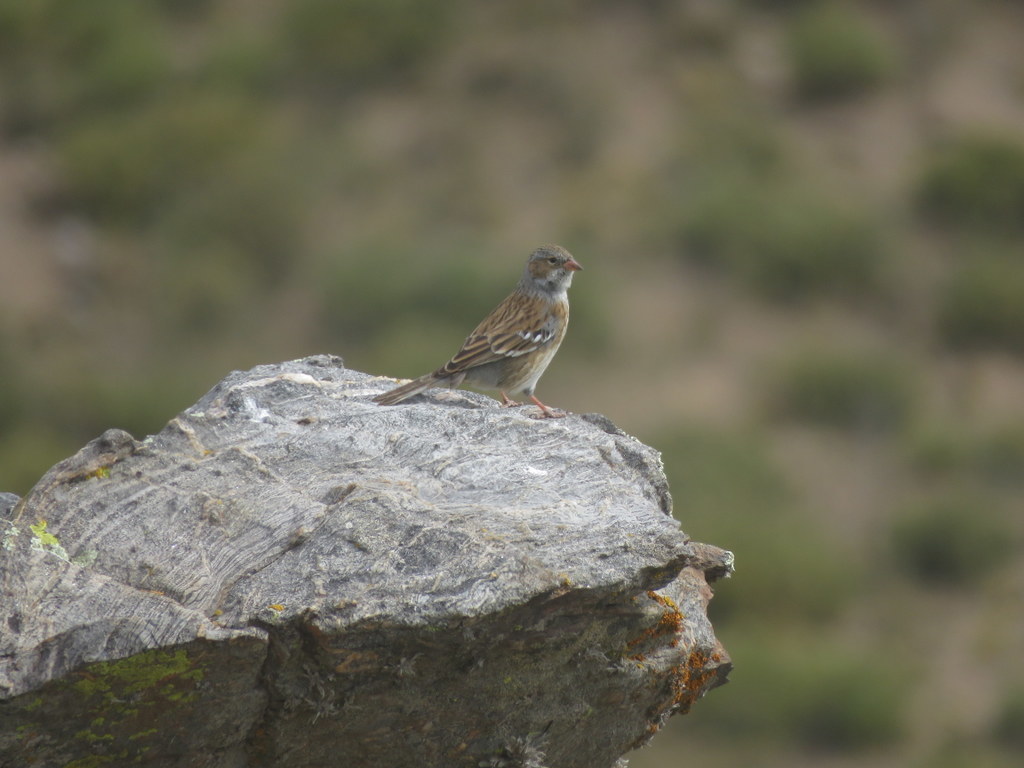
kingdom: Animalia
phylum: Chordata
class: Aves
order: Passeriformes
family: Thraupidae
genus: Rhopospina
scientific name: Rhopospina fruticeti
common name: Mourning sierra finch
